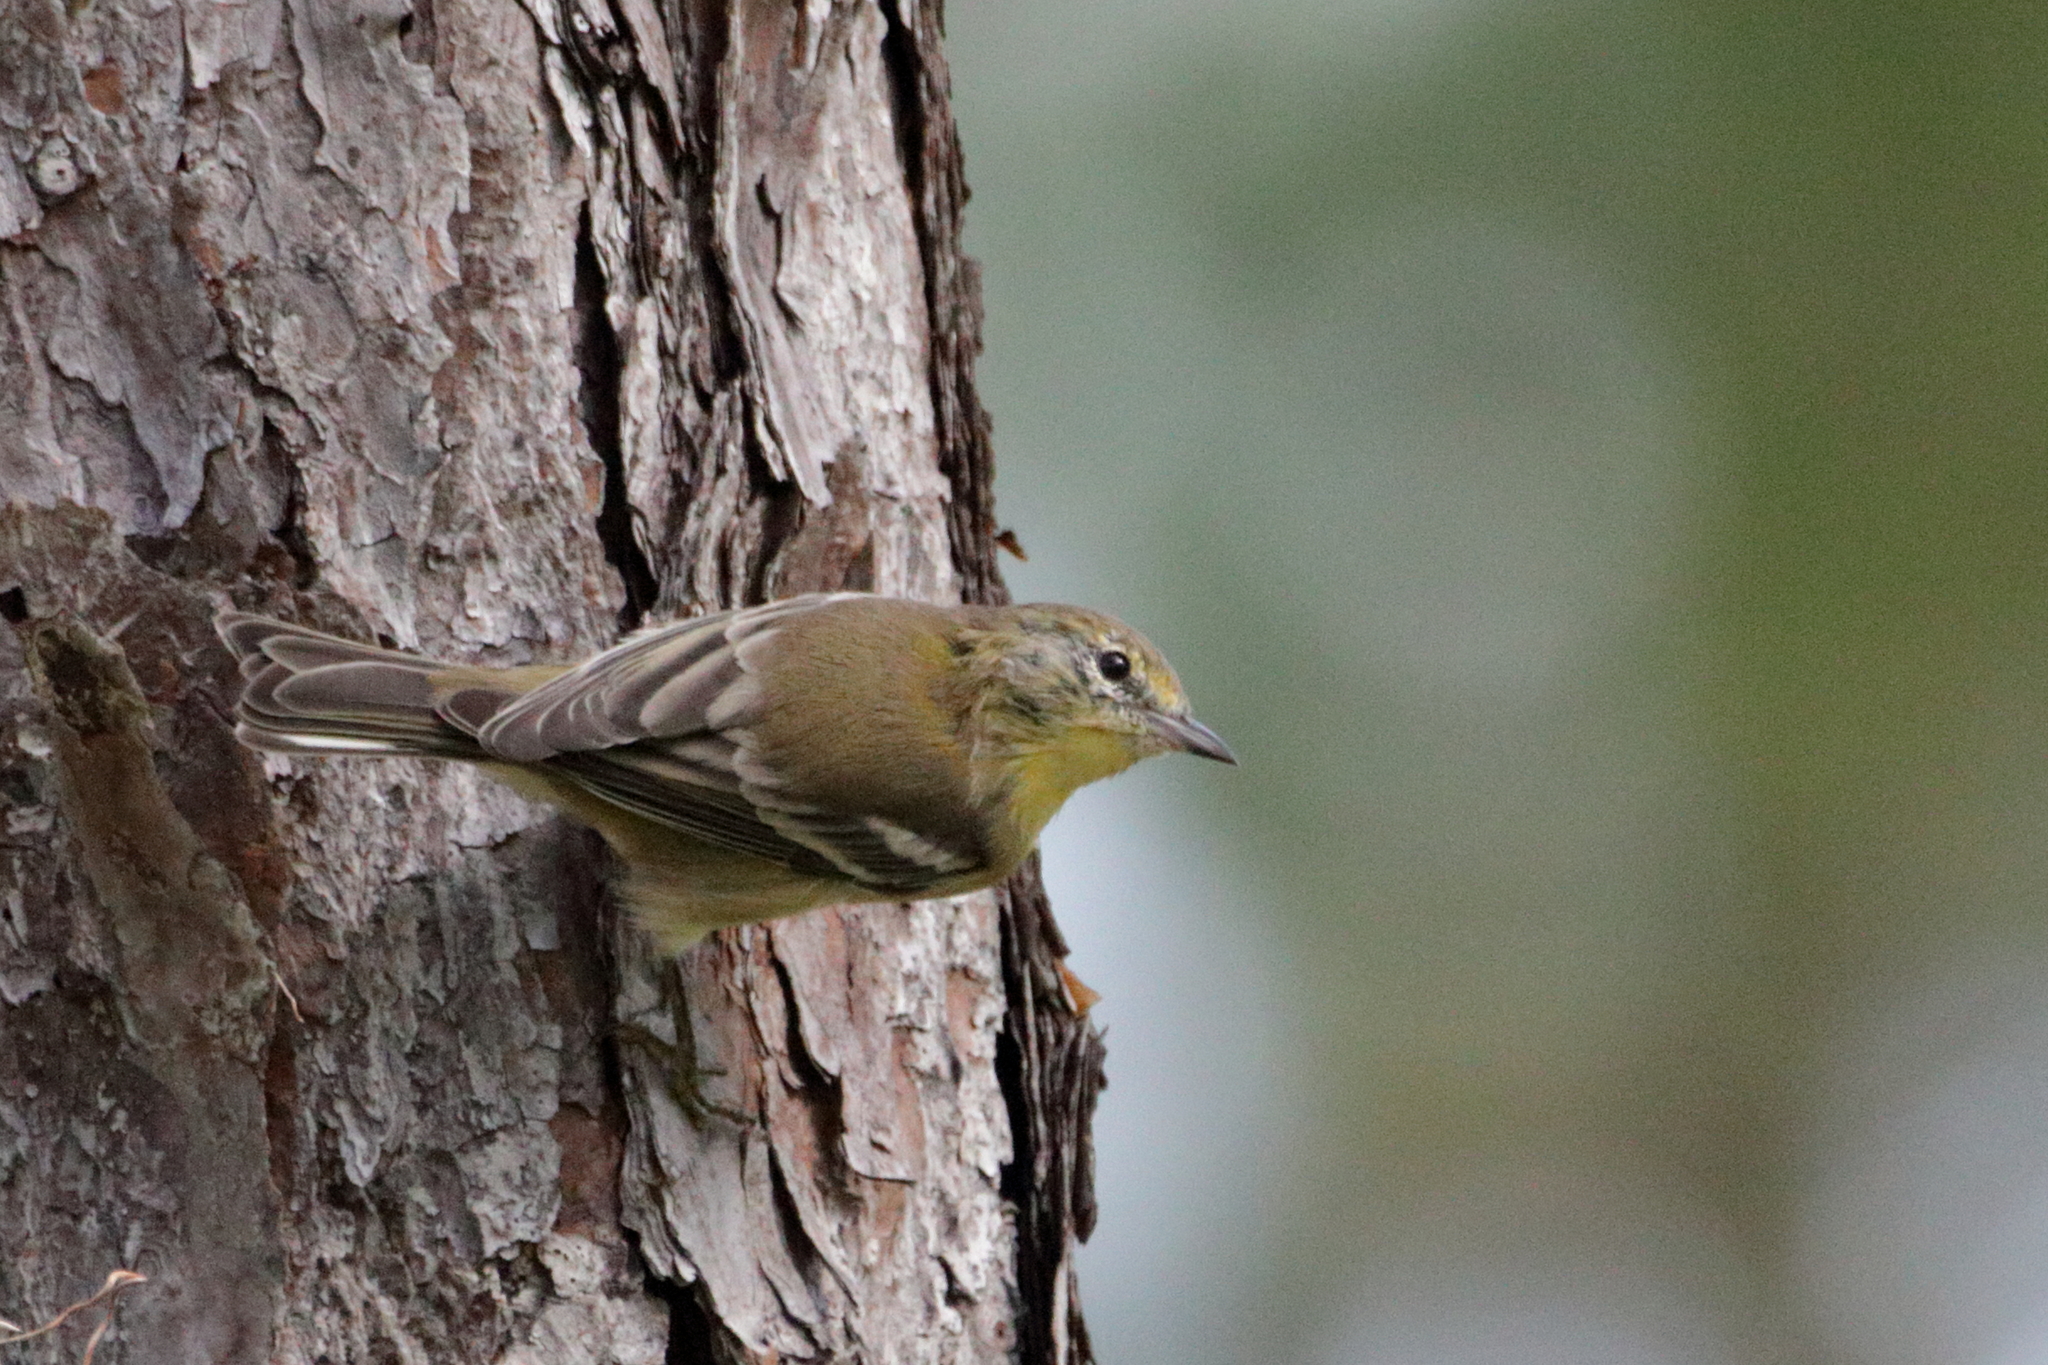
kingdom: Animalia
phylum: Chordata
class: Aves
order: Passeriformes
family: Parulidae
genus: Setophaga
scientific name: Setophaga pinus
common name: Pine warbler
